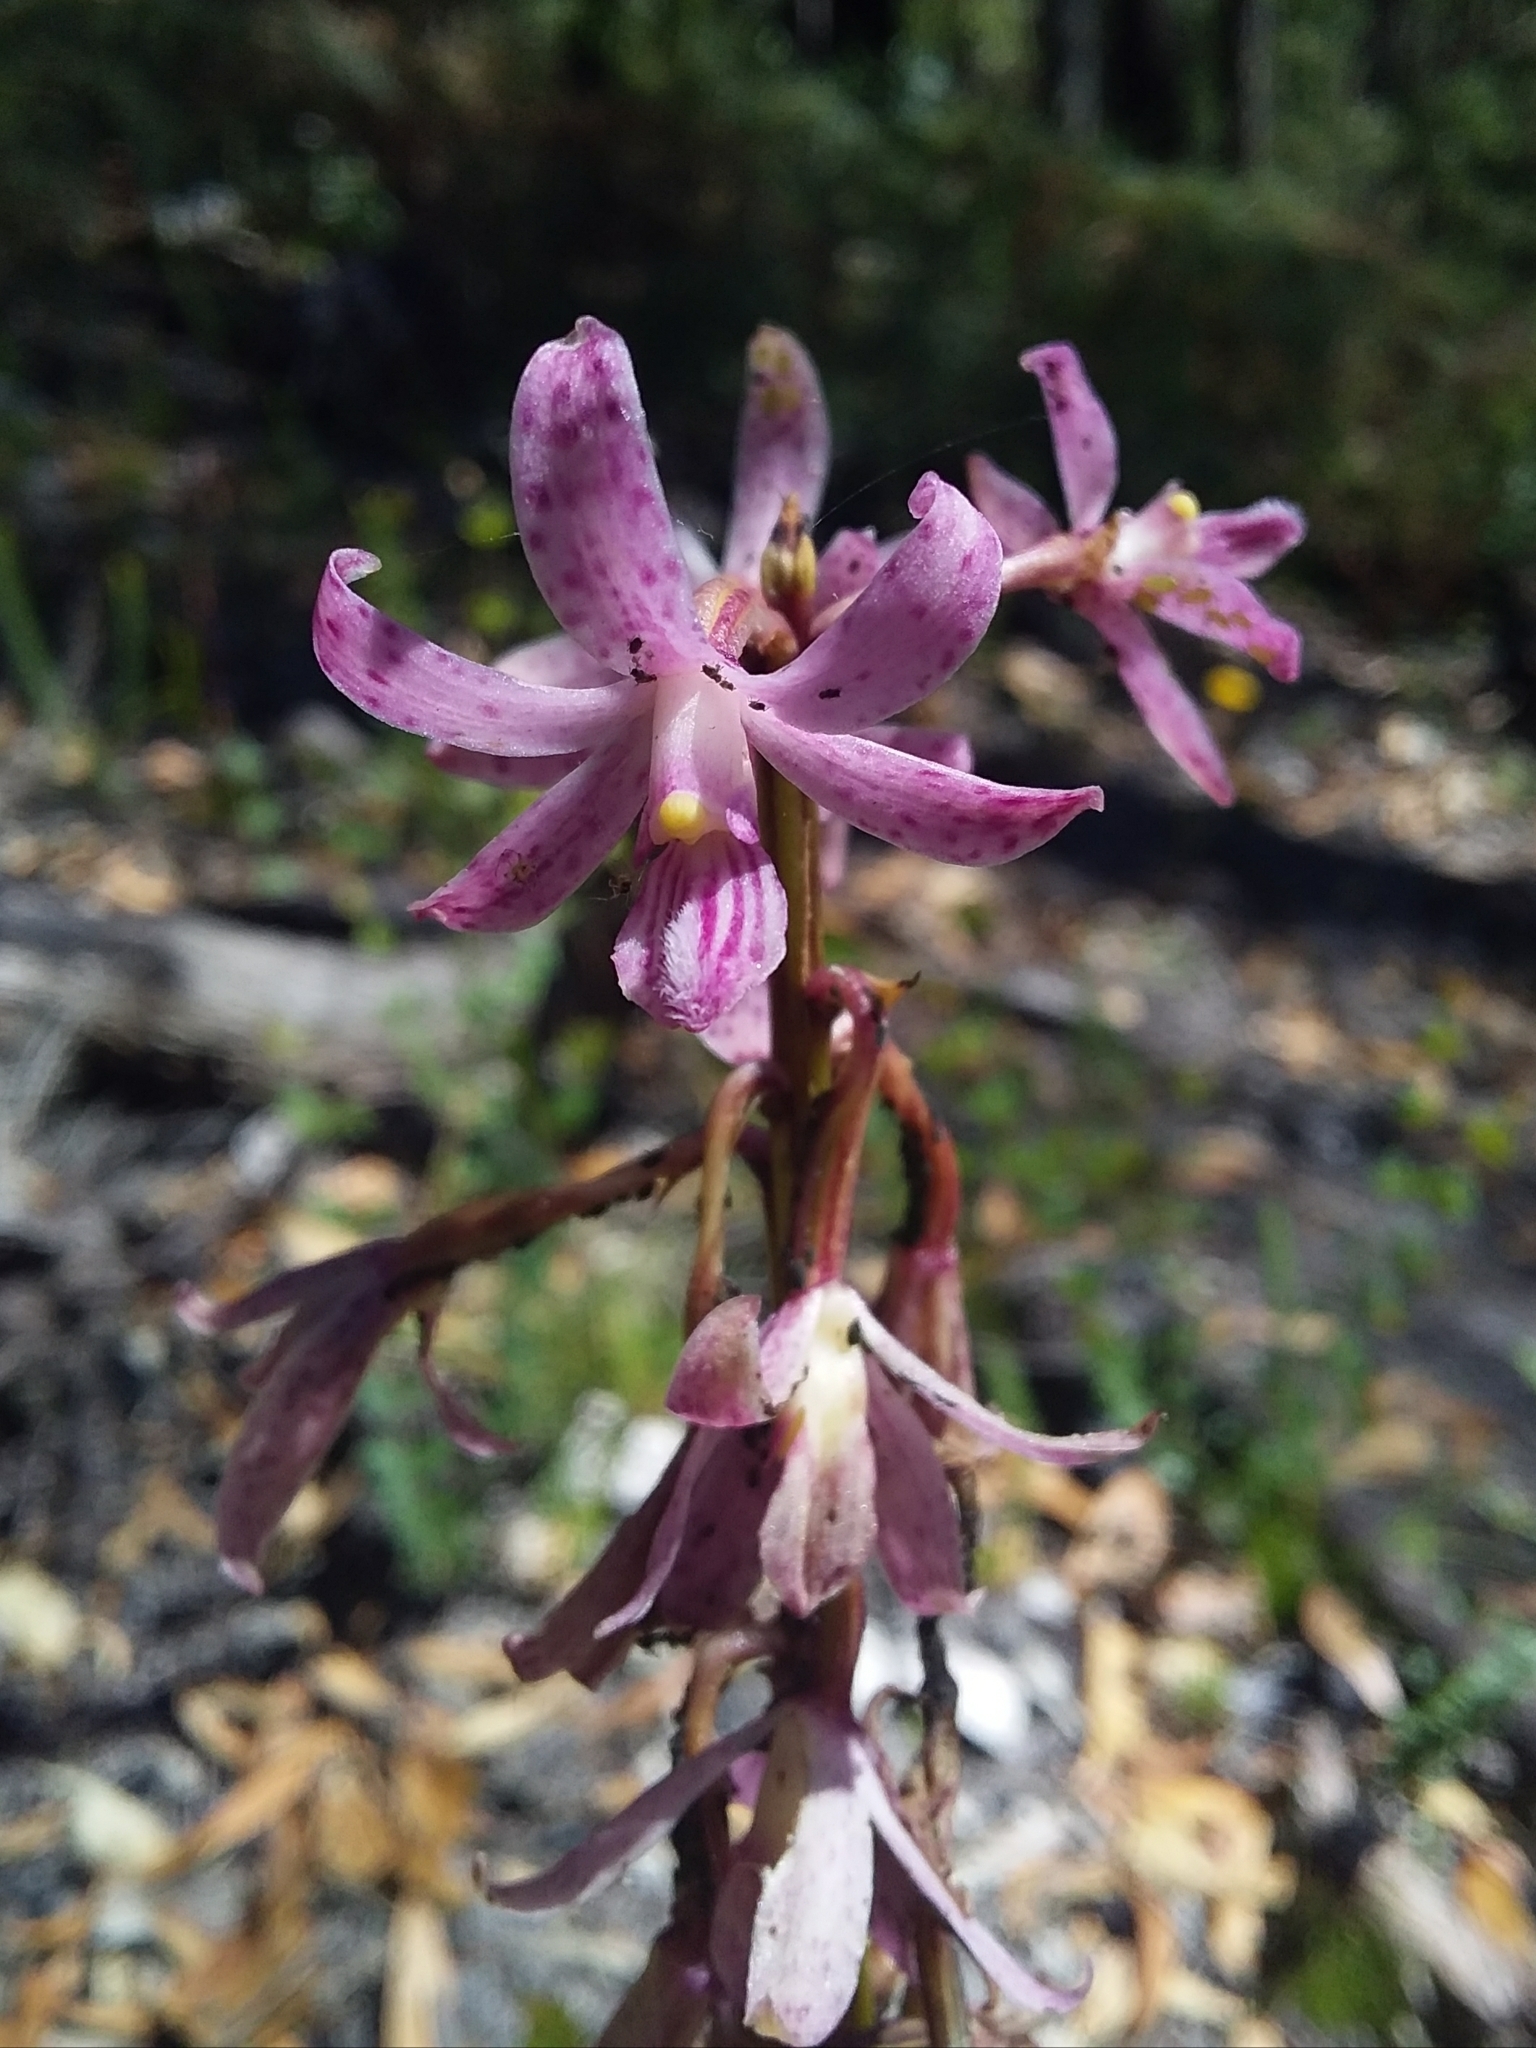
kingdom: Plantae
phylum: Tracheophyta
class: Liliopsida
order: Asparagales
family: Orchidaceae
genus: Dipodium
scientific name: Dipodium roseum
